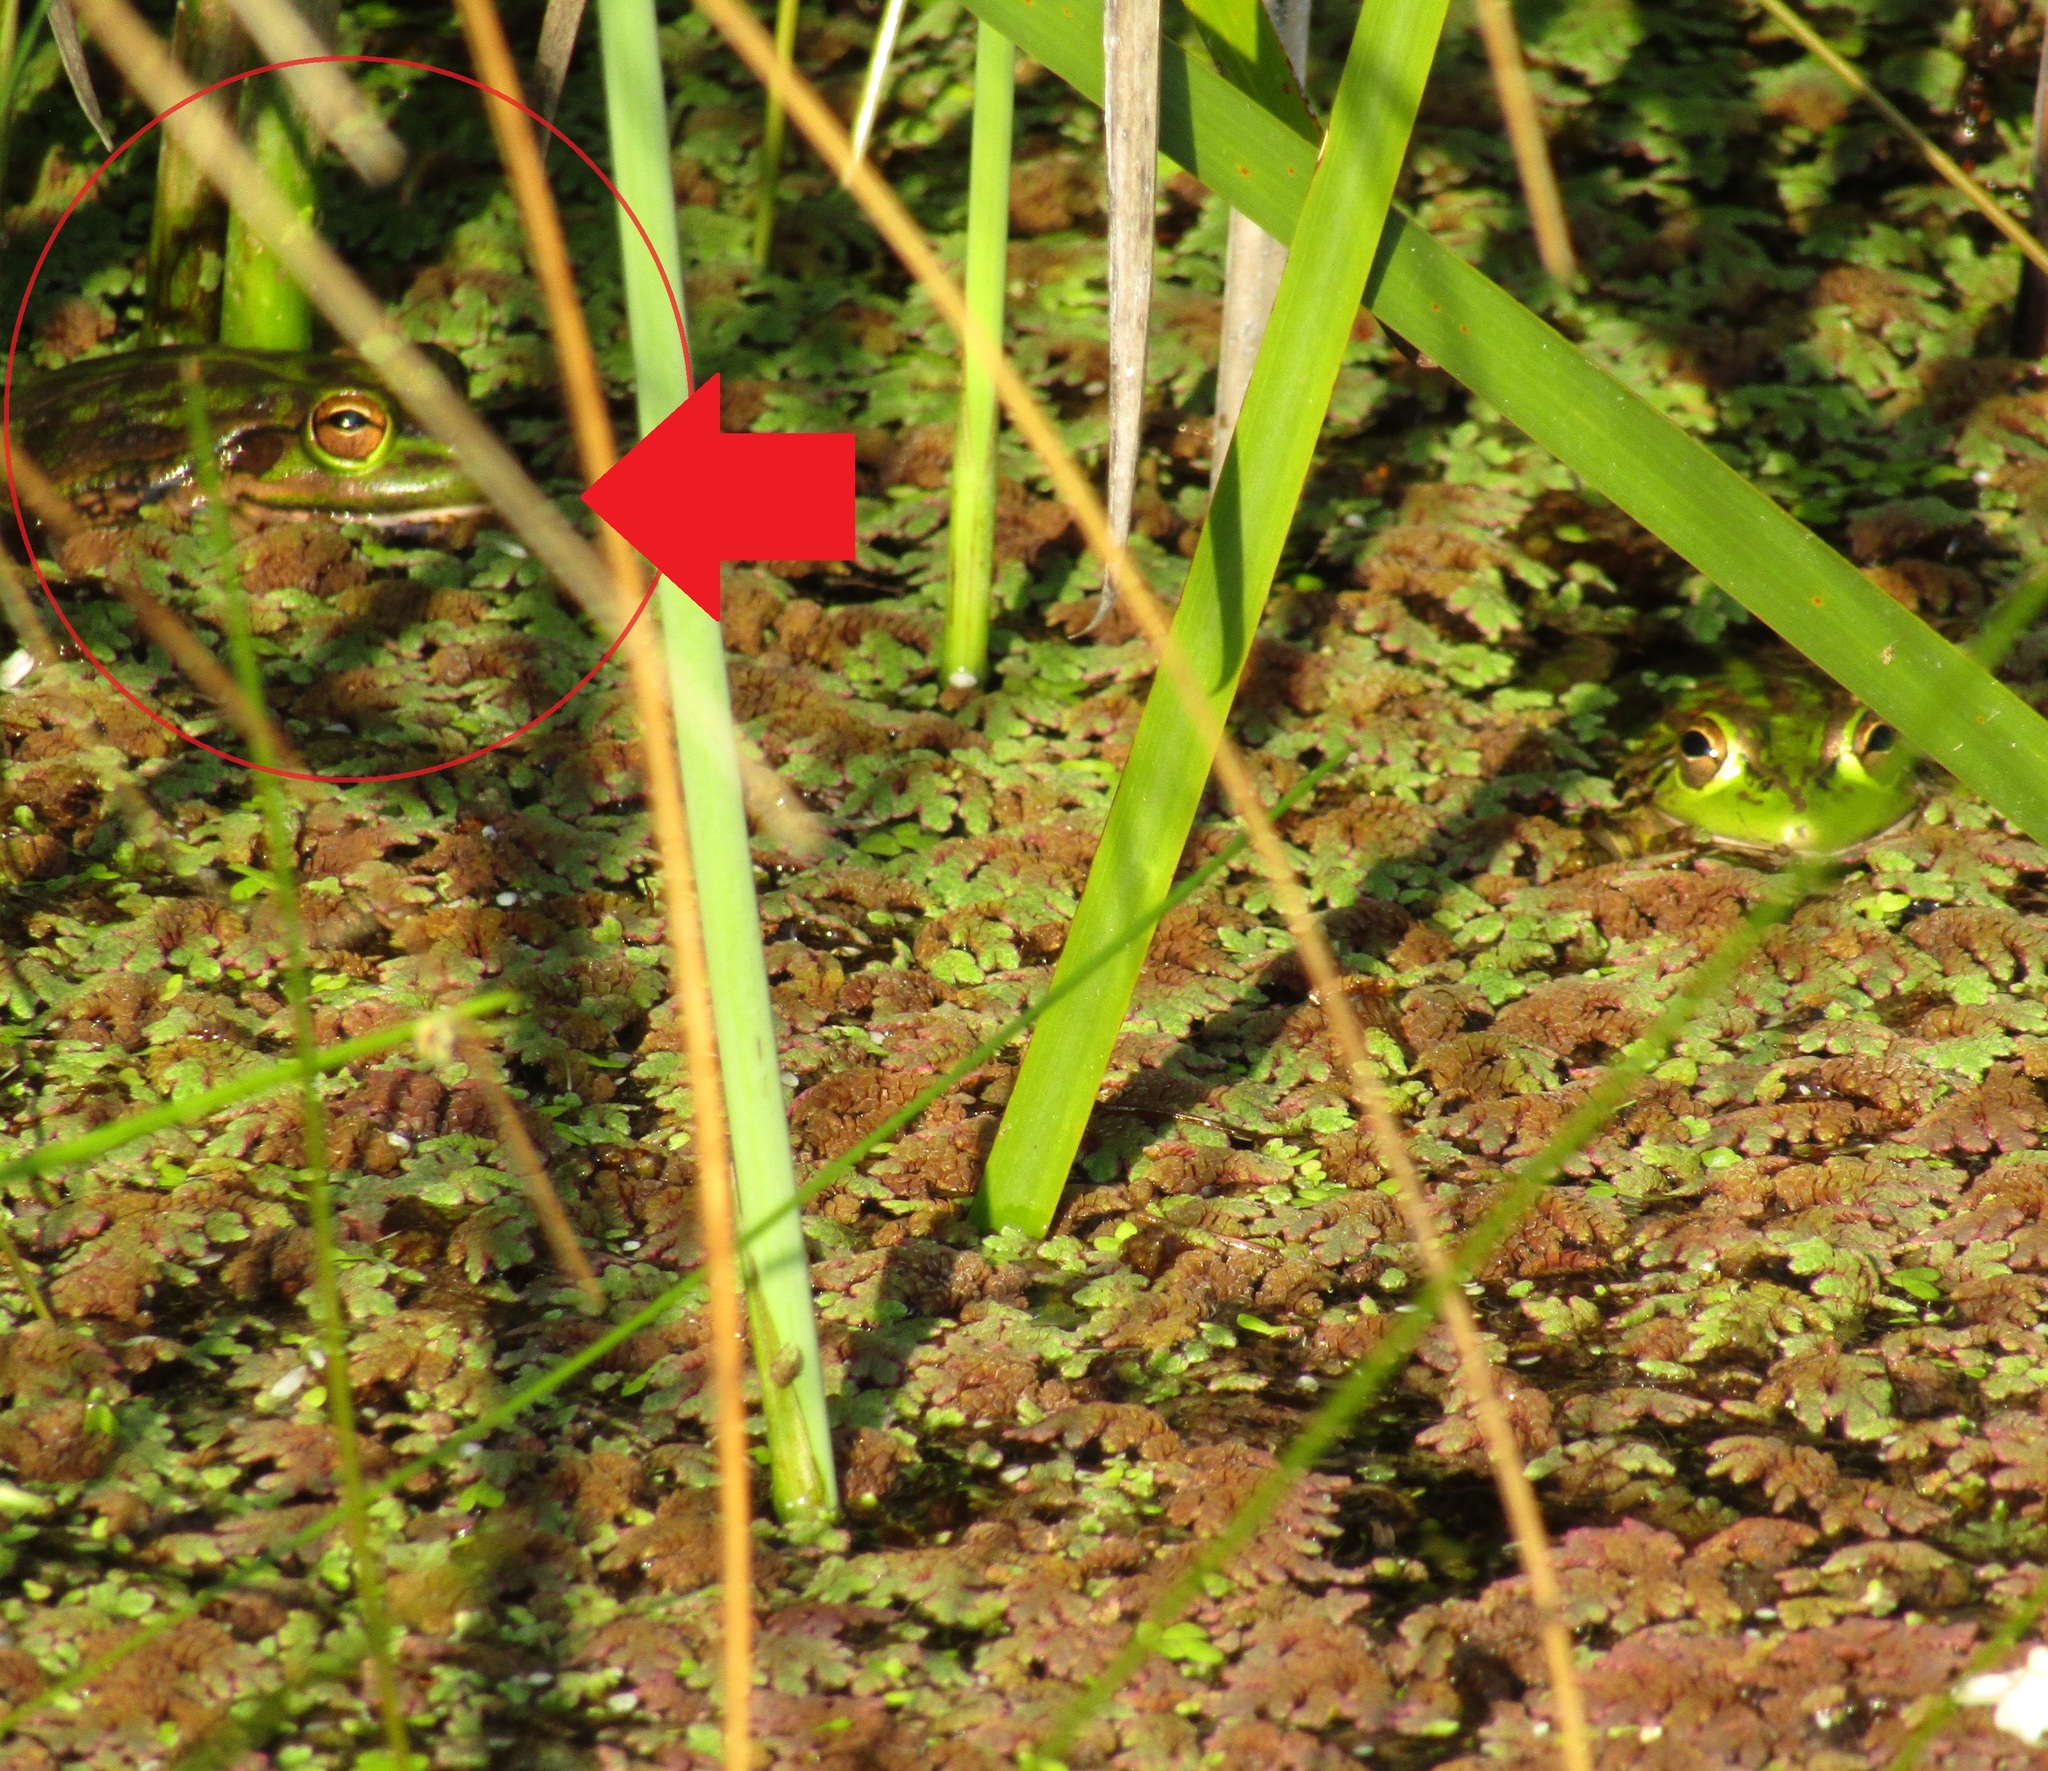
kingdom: Animalia
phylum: Chordata
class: Amphibia
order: Anura
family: Pelodryadidae
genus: Ranoidea
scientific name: Ranoidea raniformis
